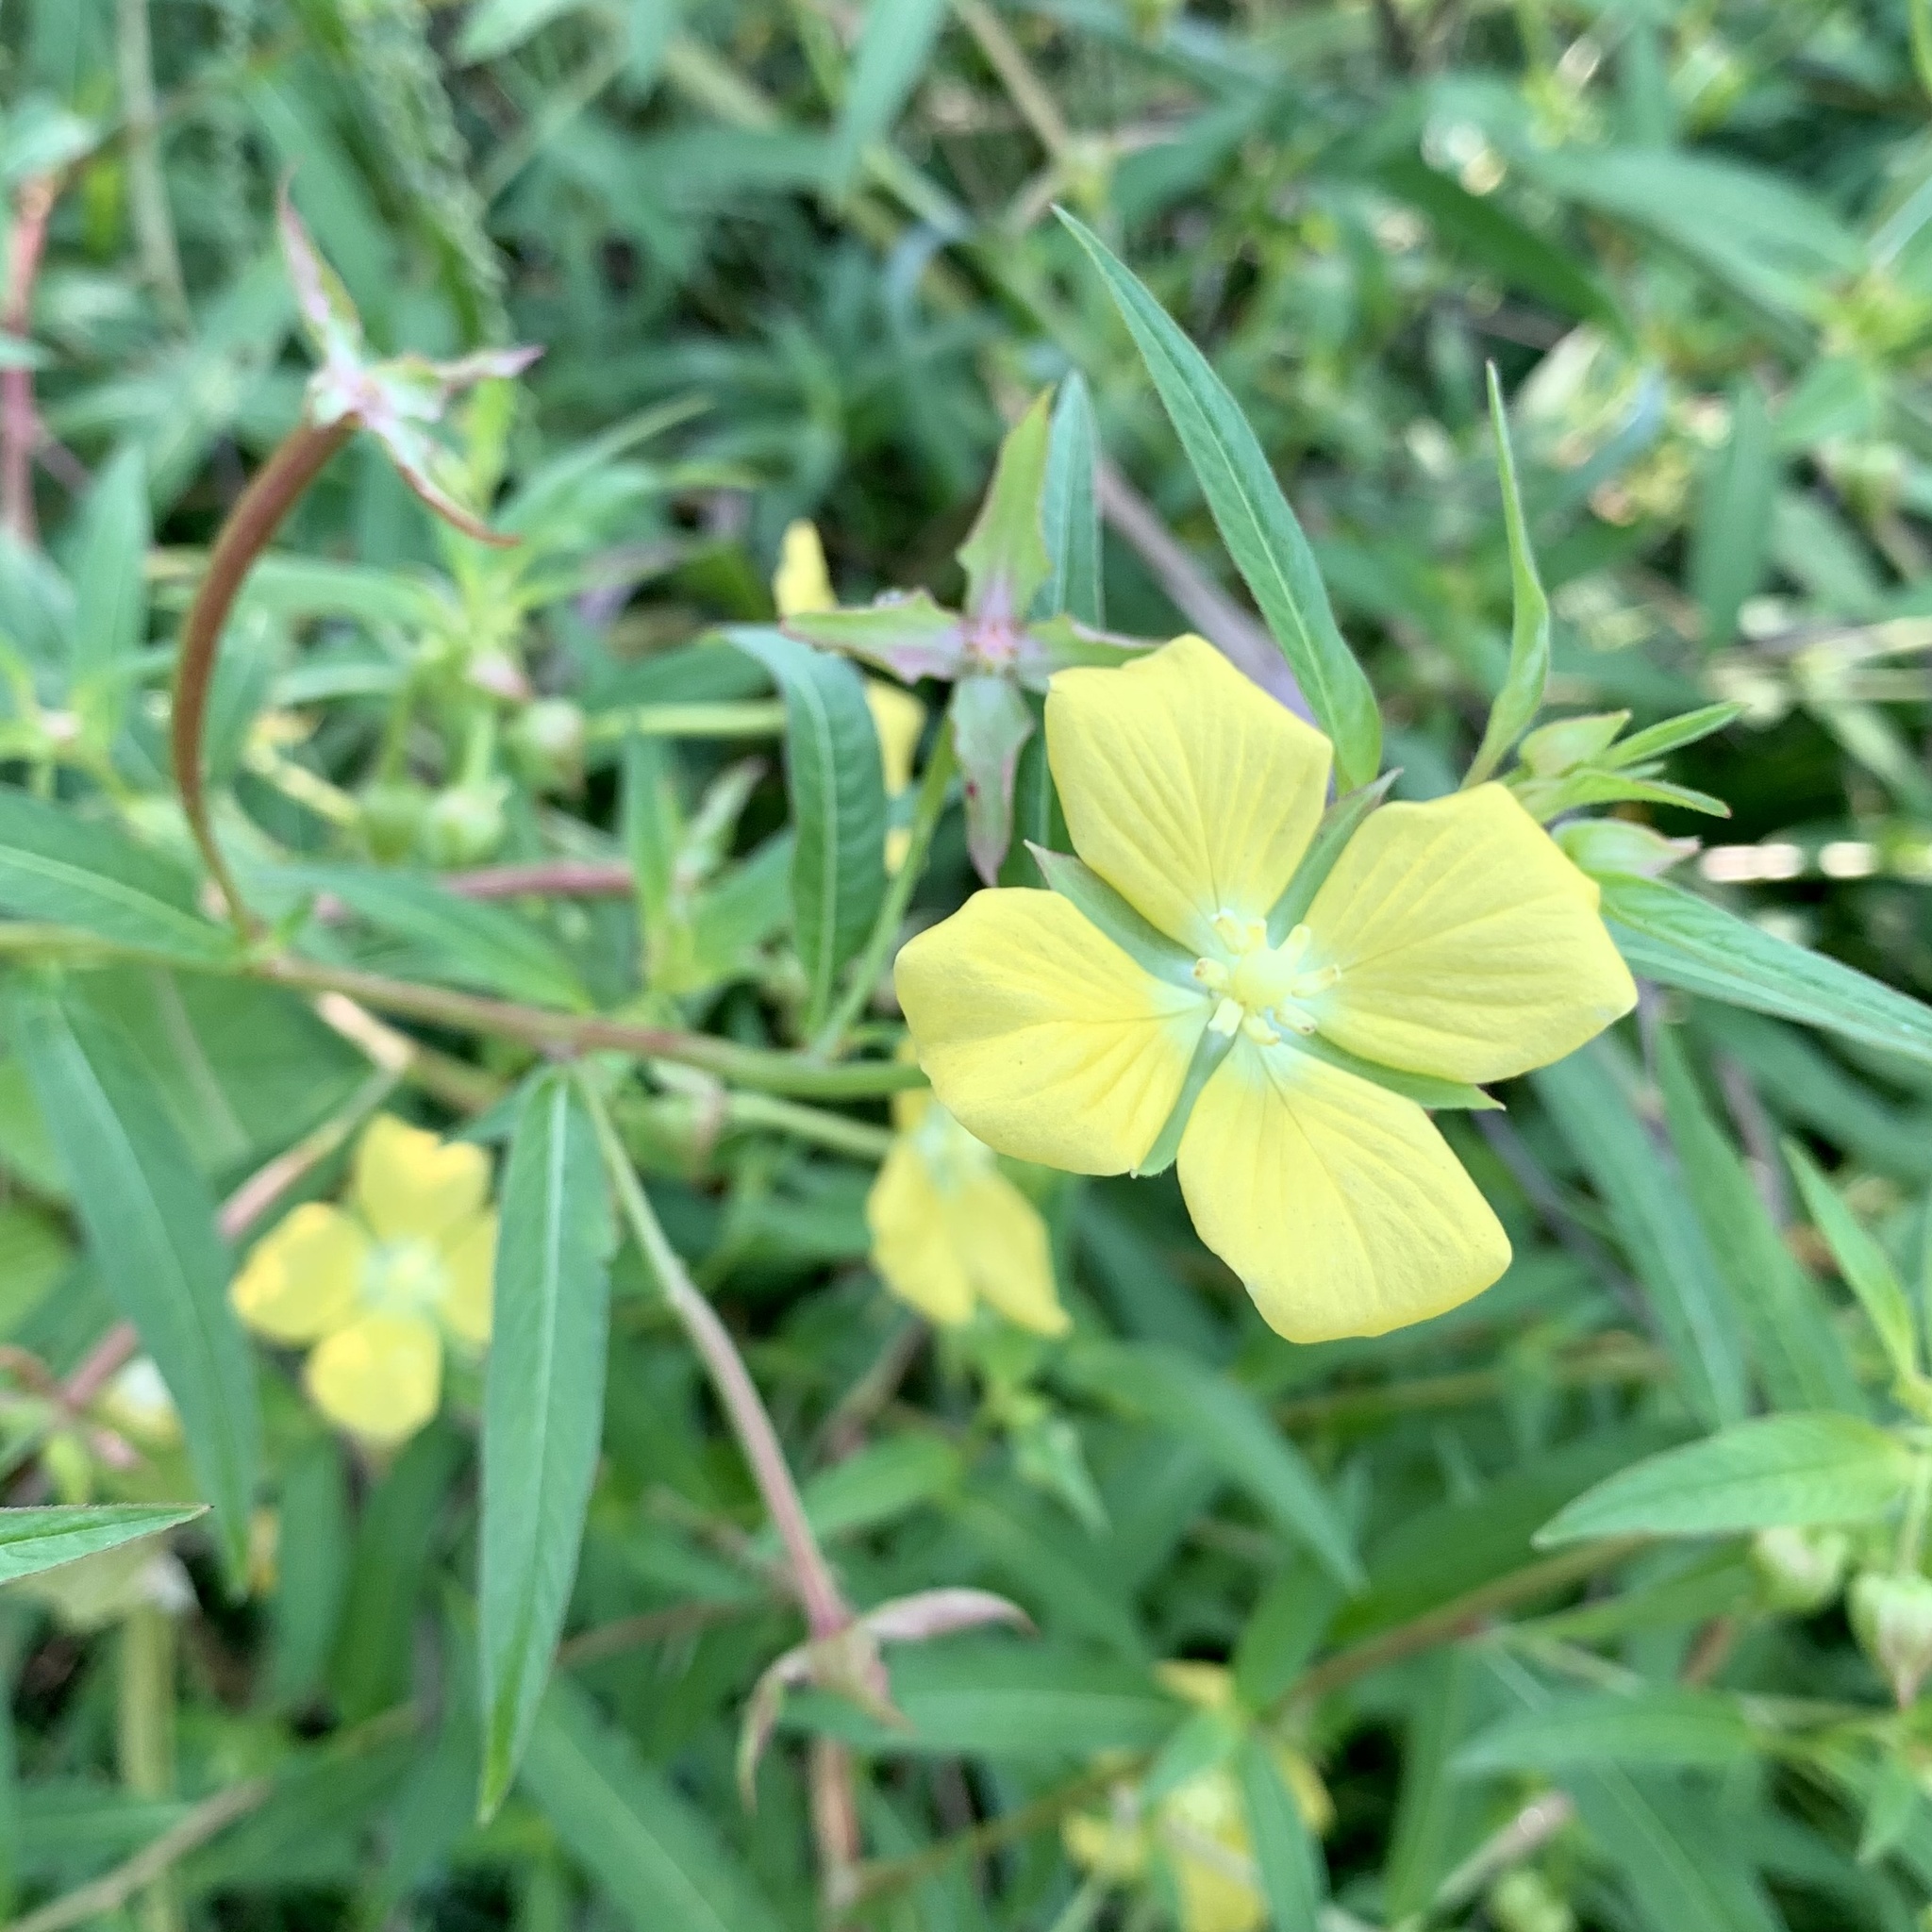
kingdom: Plantae
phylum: Tracheophyta
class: Magnoliopsida
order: Myrtales
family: Onagraceae
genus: Ludwigia
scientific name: Ludwigia octovalvis
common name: Water-primrose
